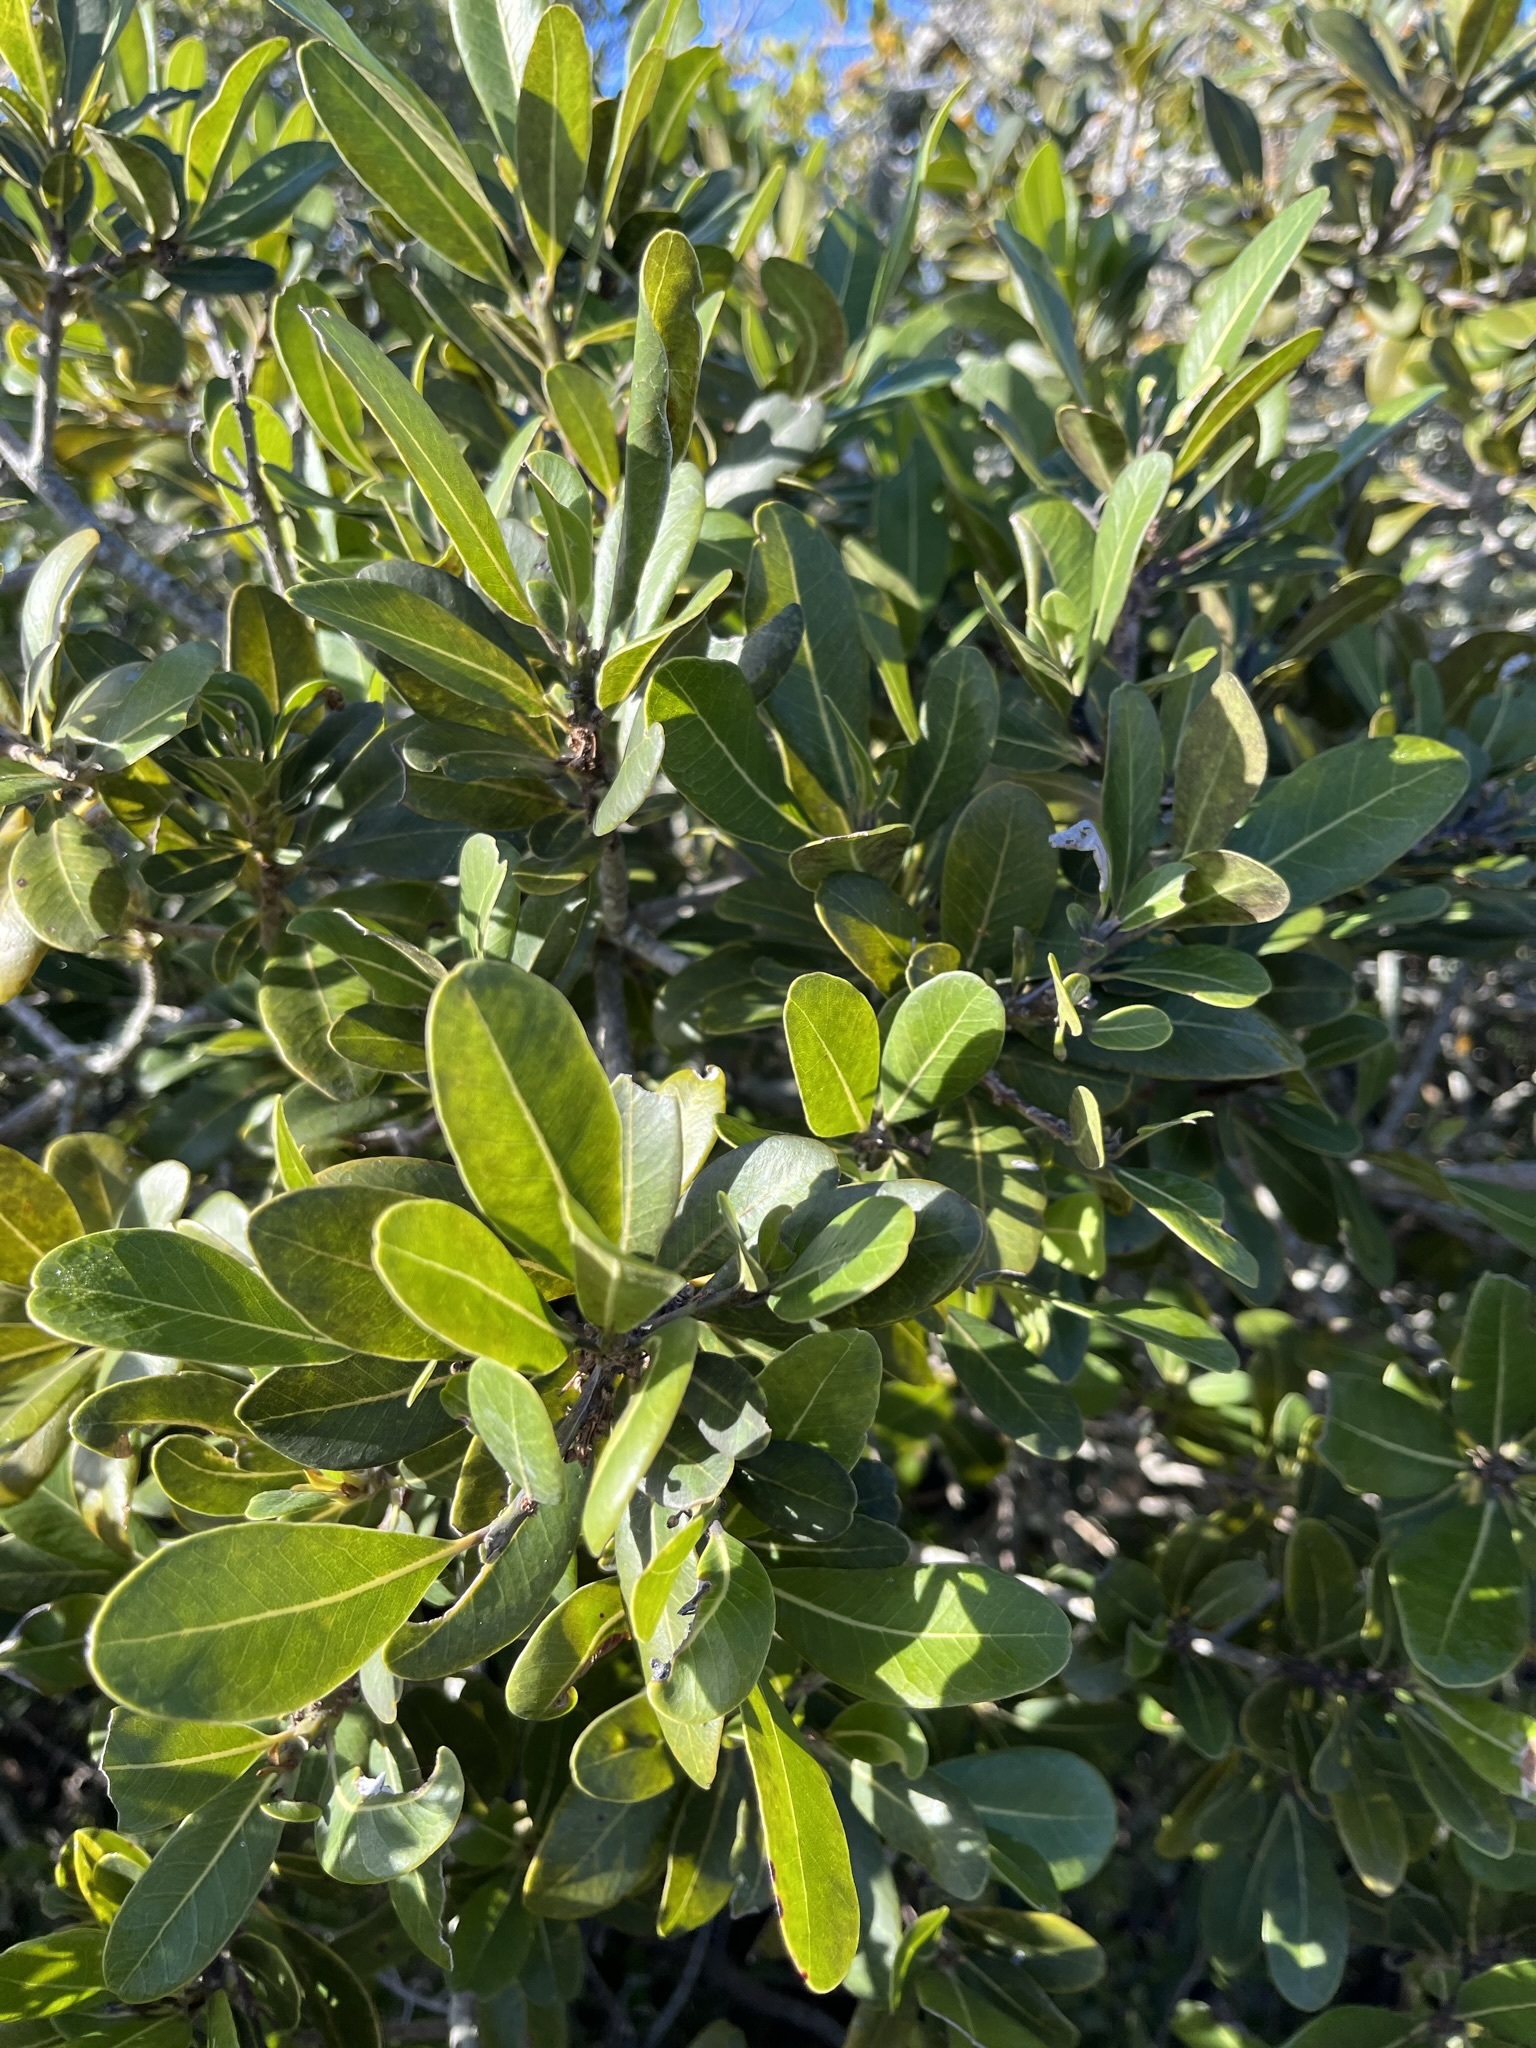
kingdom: Plantae
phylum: Tracheophyta
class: Magnoliopsida
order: Ericales
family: Sapotaceae
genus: Sideroxylon
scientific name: Sideroxylon inerme
